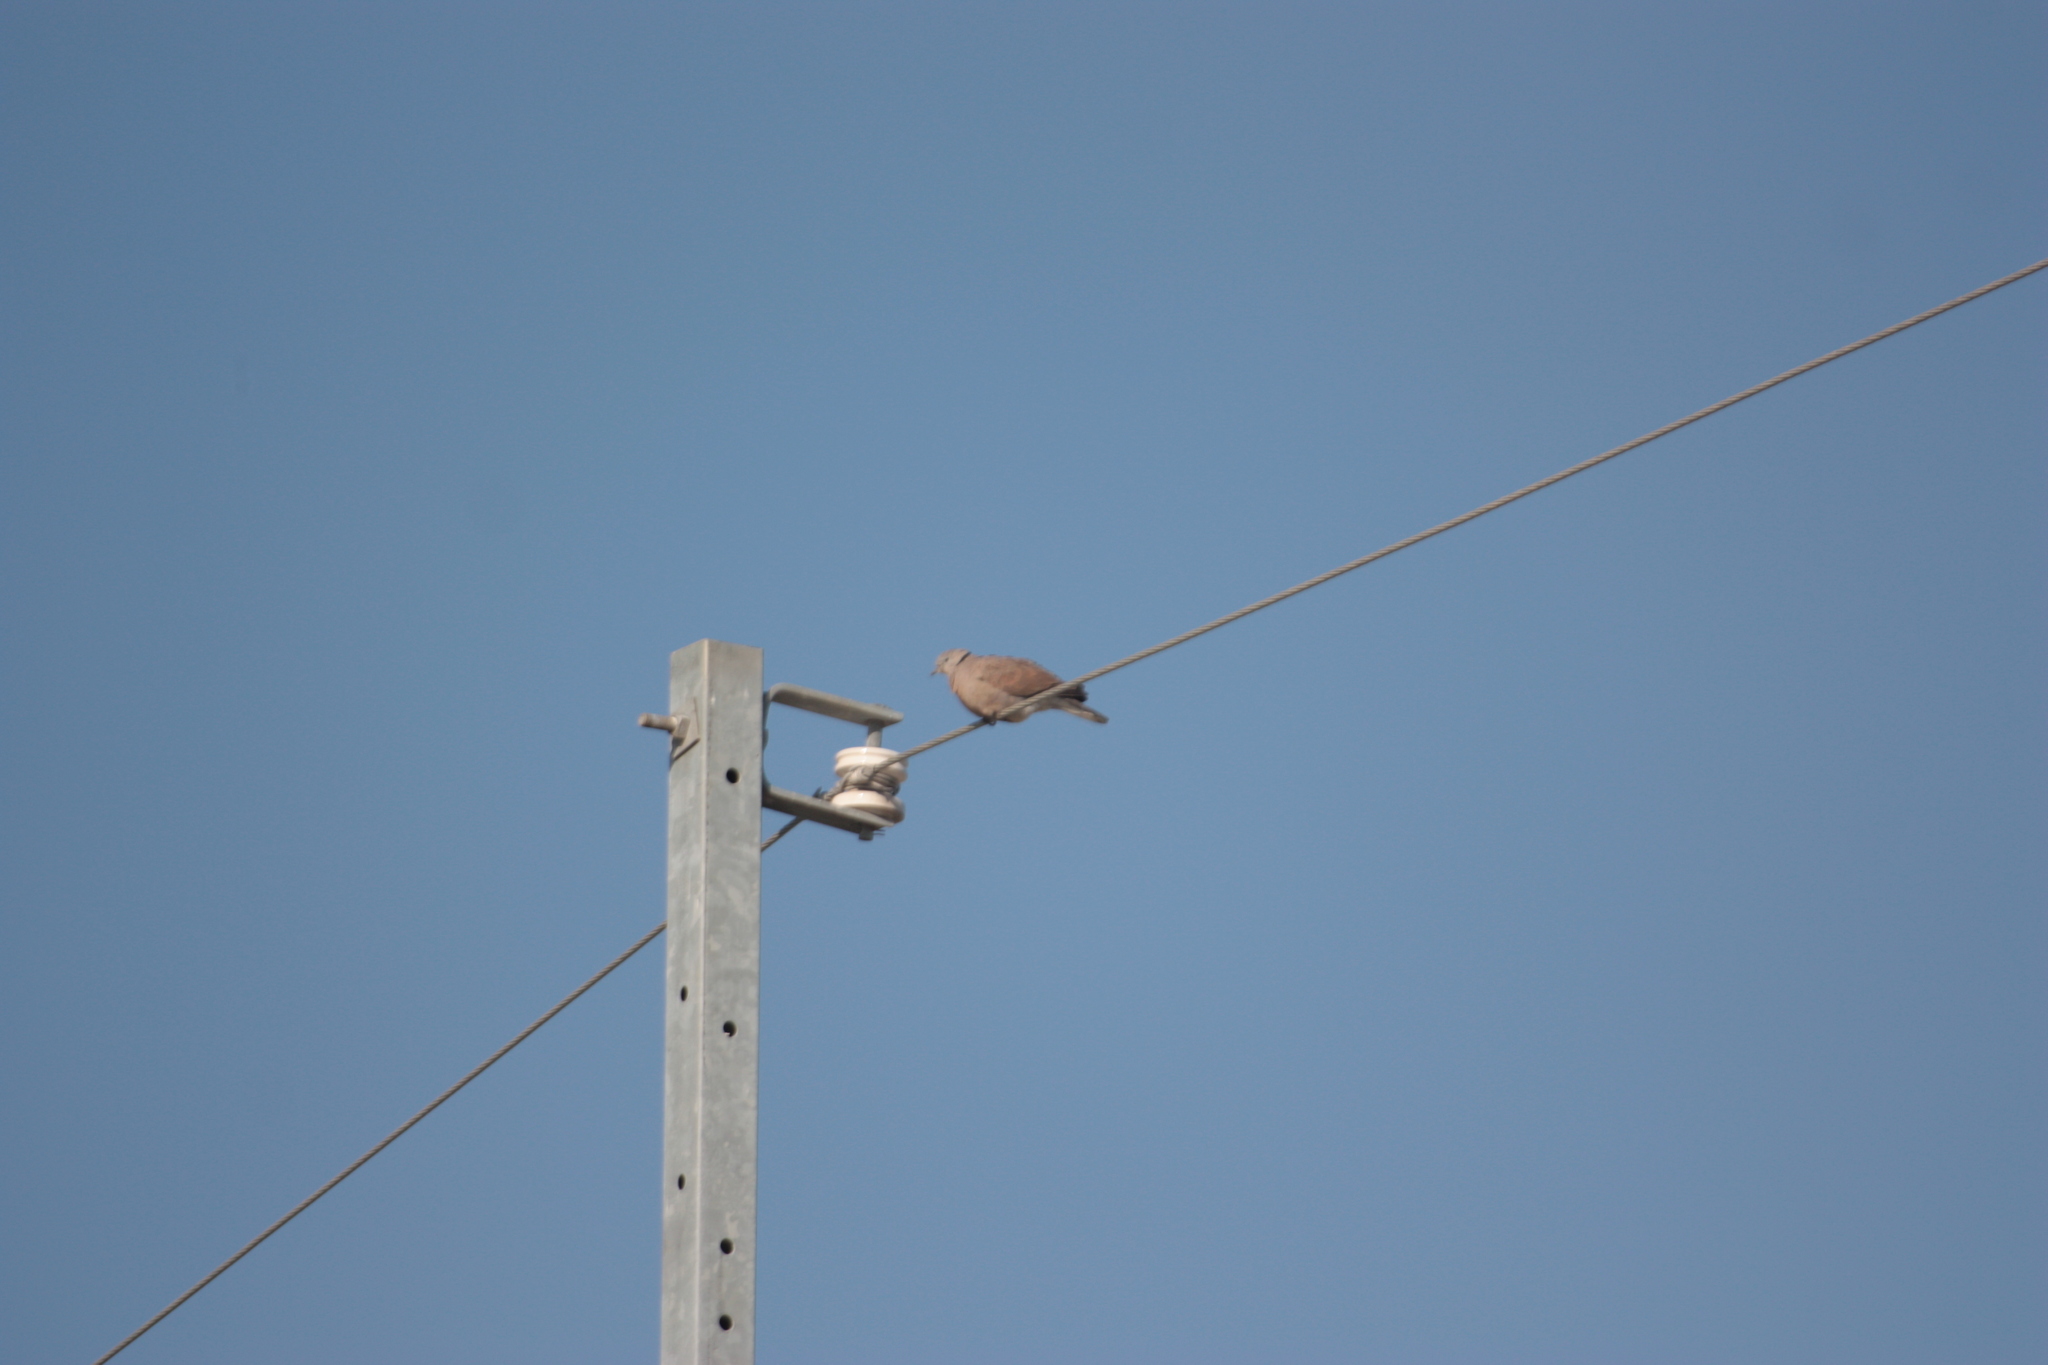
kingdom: Animalia
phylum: Chordata
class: Aves
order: Columbiformes
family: Columbidae
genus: Streptopelia
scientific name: Streptopelia tranquebarica
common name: Red turtle dove
